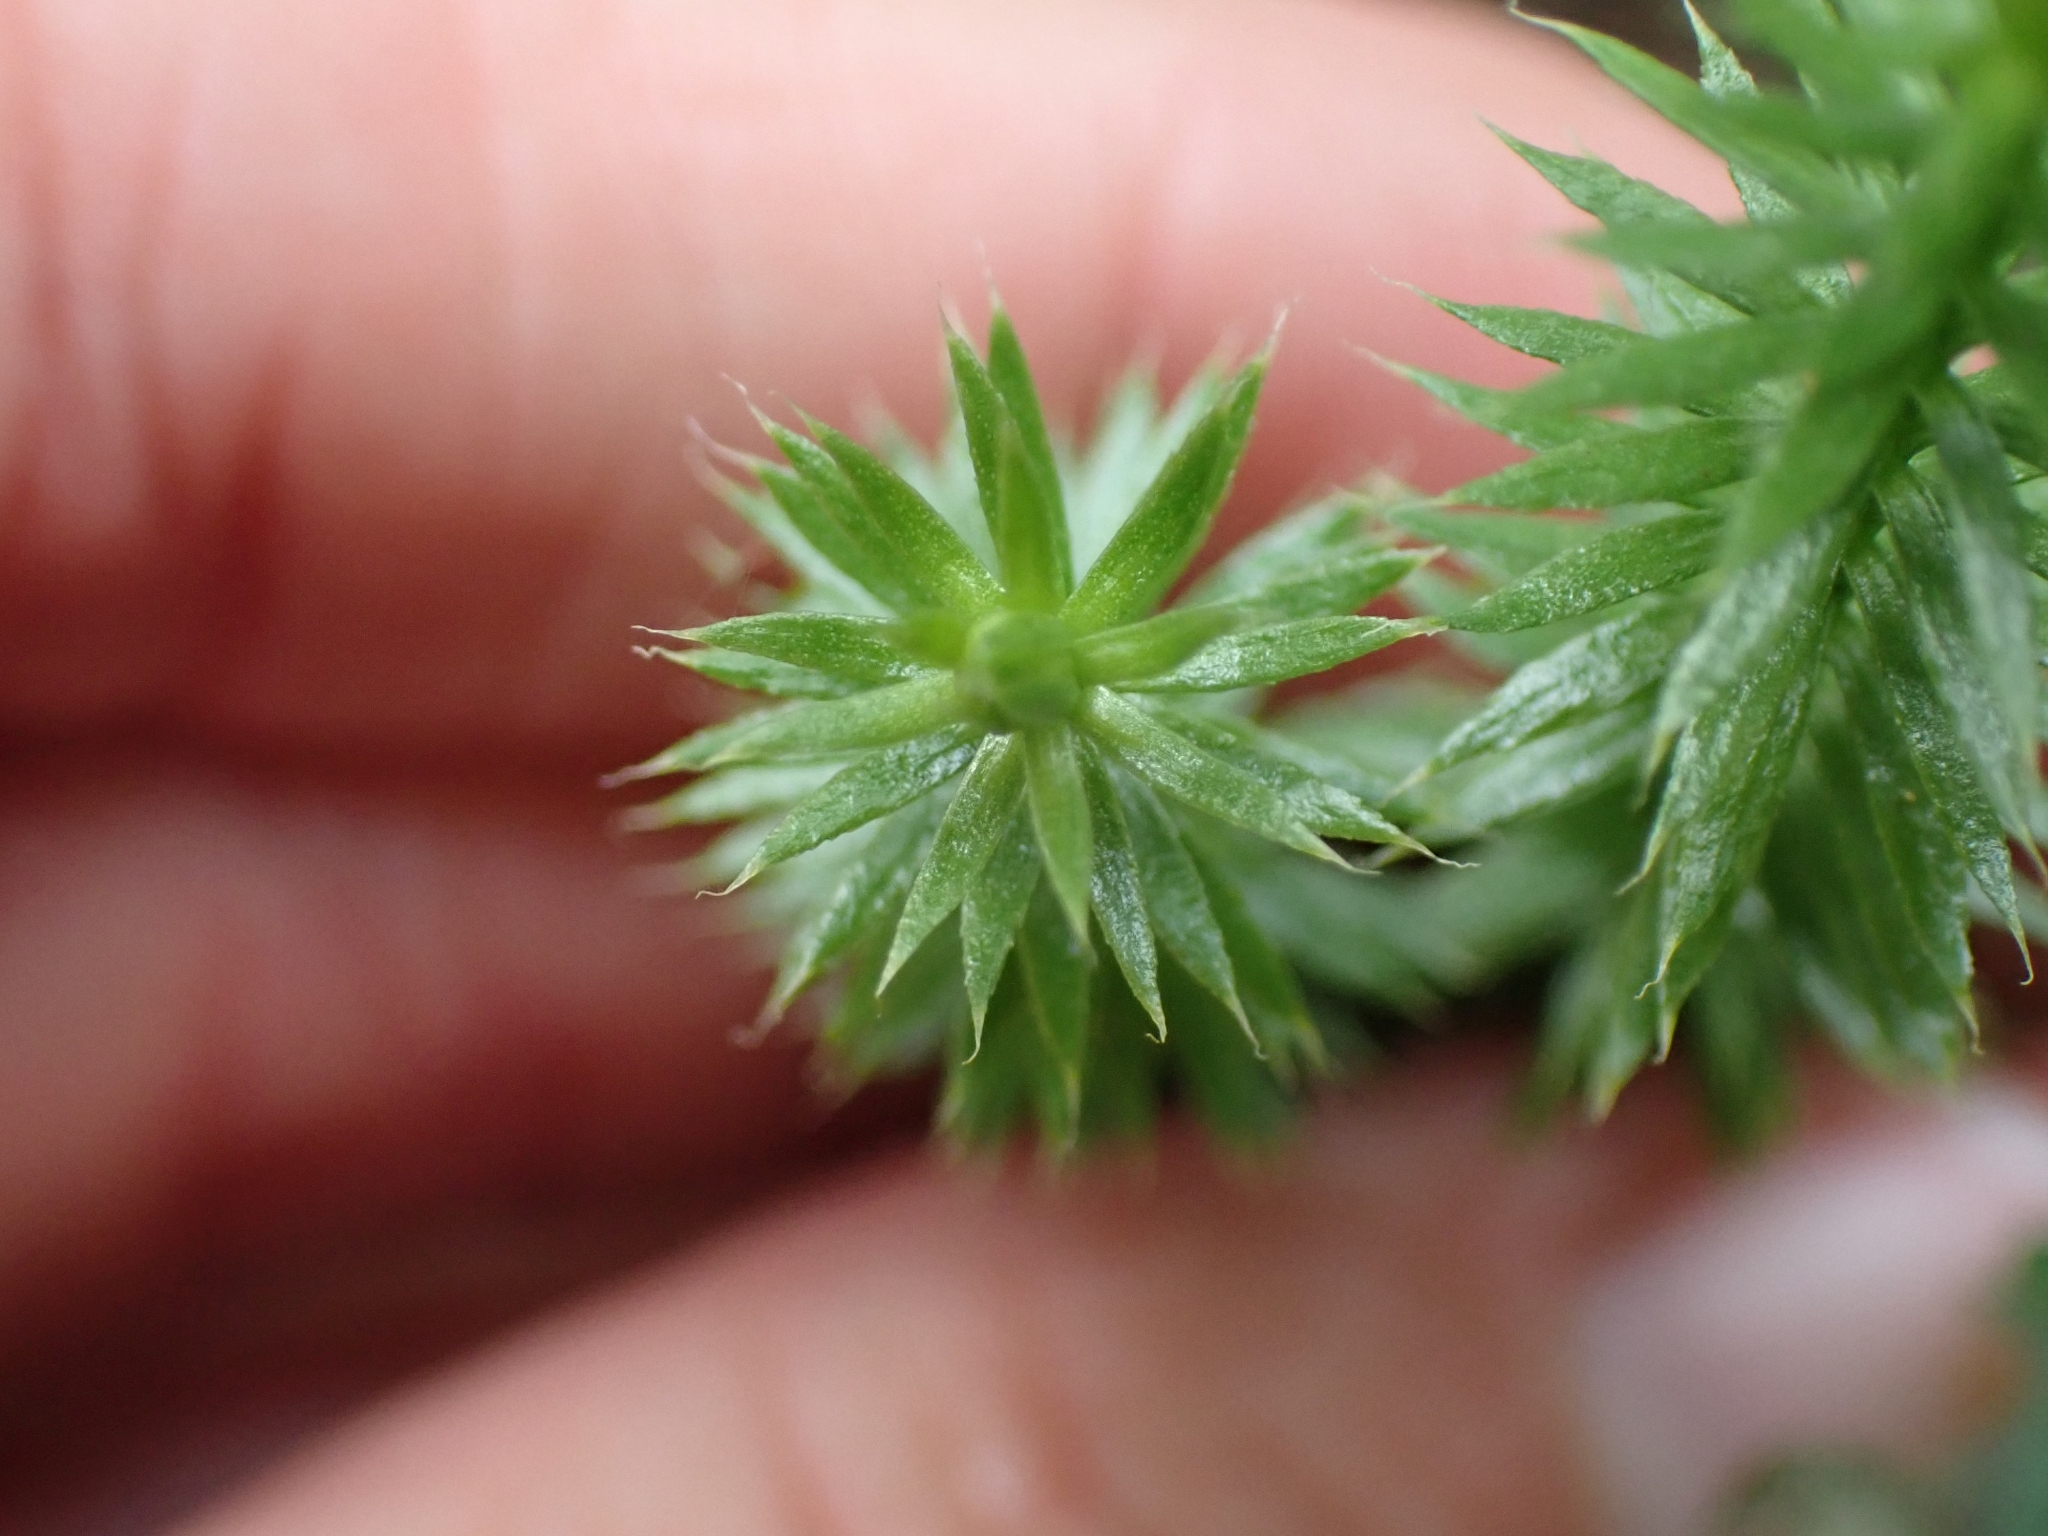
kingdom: Plantae
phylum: Tracheophyta
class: Lycopodiopsida
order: Lycopodiales
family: Lycopodiaceae
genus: Spinulum
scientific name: Spinulum annotinum
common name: Interrupted club-moss
